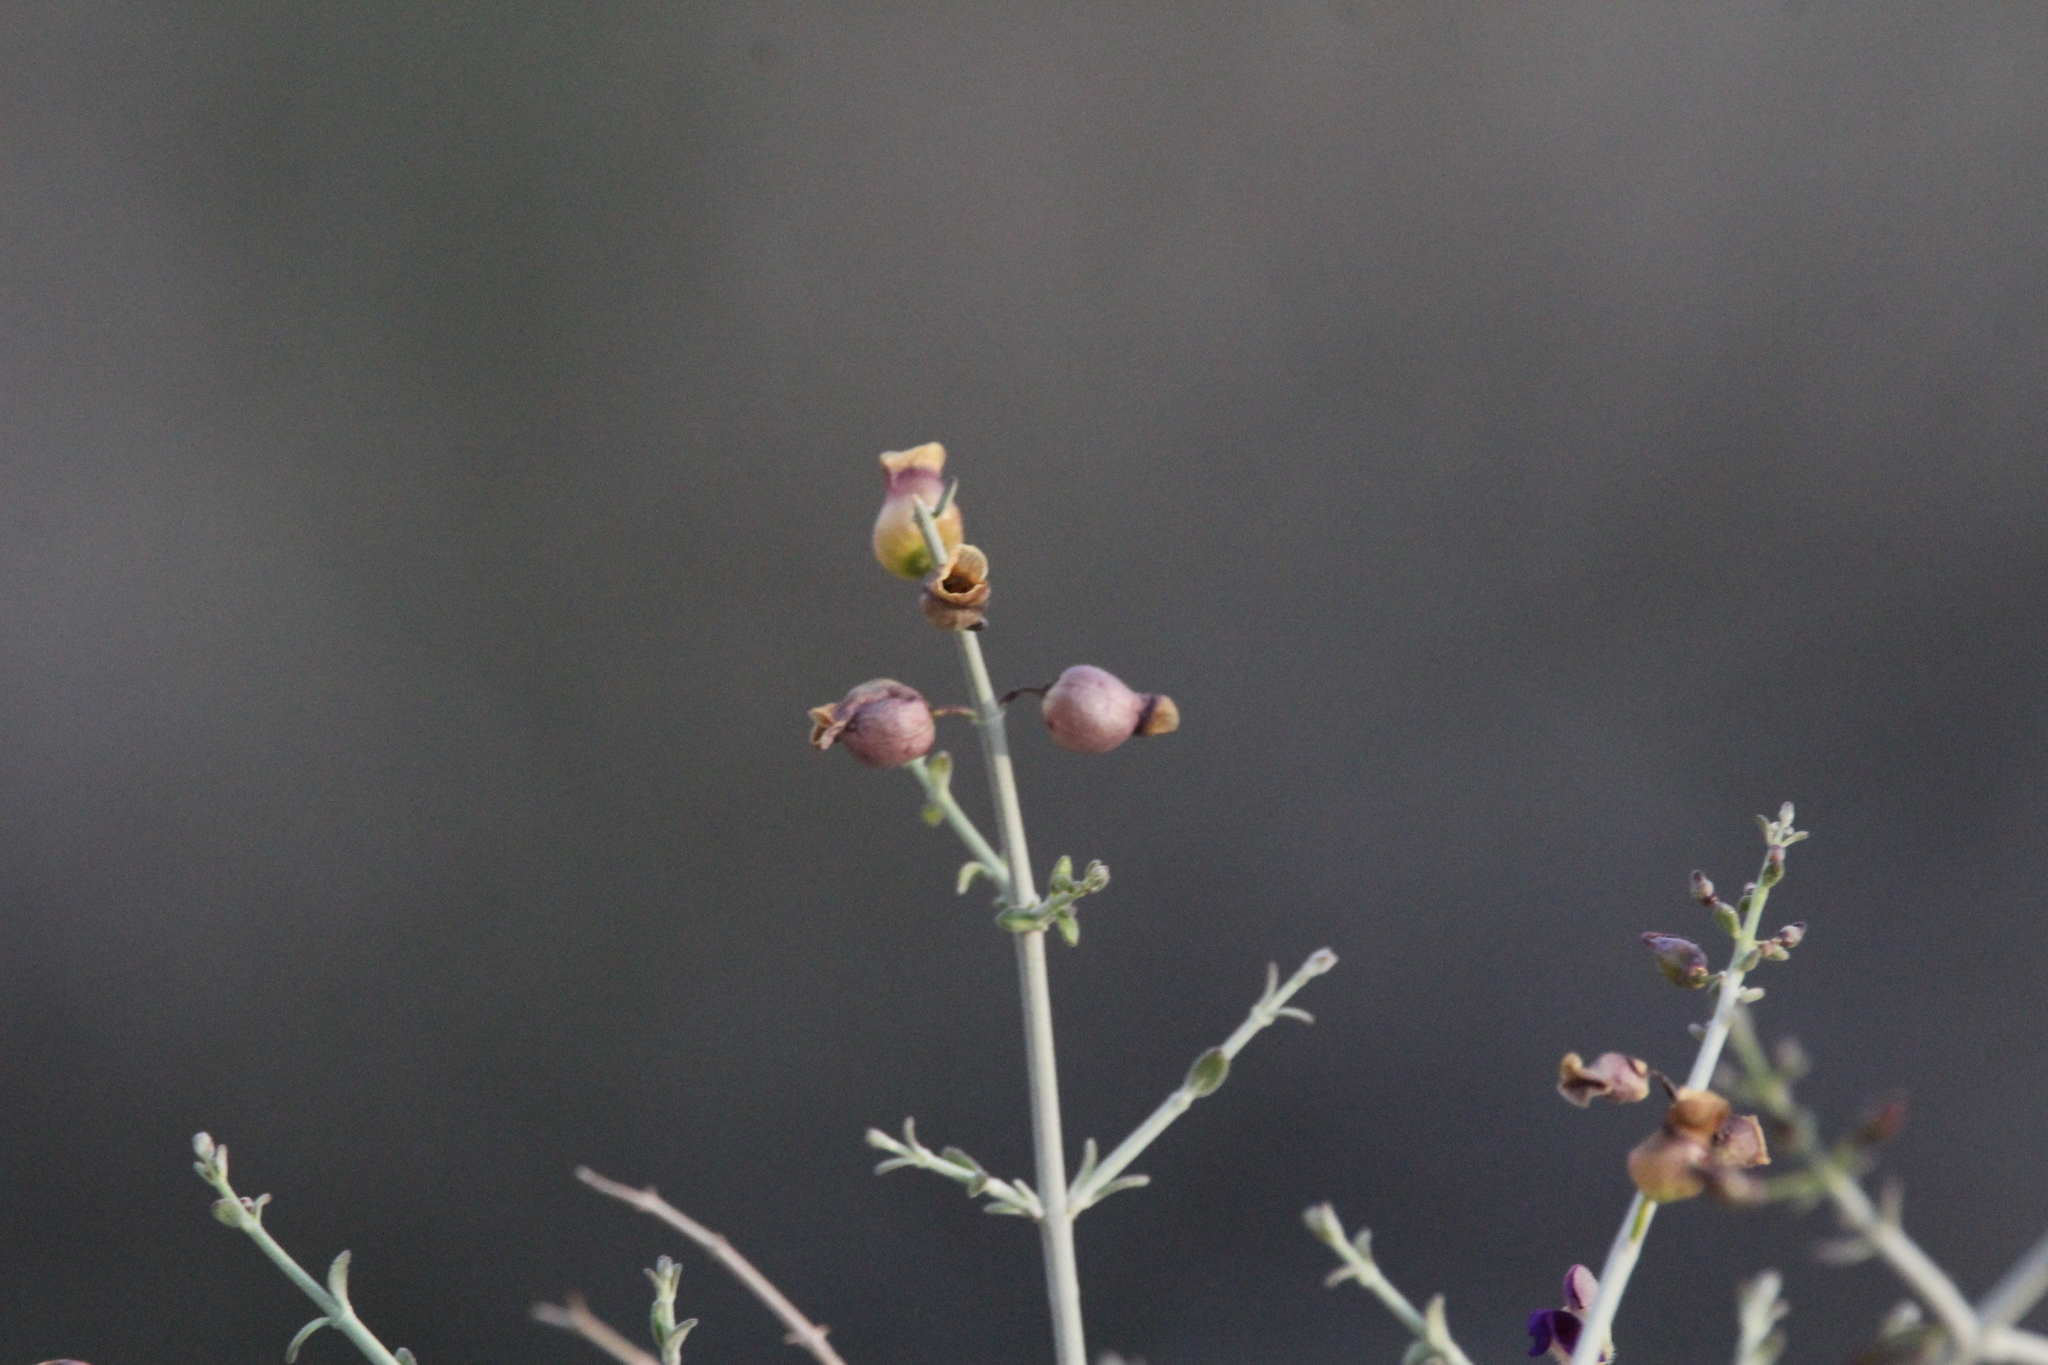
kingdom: Plantae
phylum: Tracheophyta
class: Magnoliopsida
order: Lamiales
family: Lamiaceae
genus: Scutellaria
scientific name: Scutellaria mexicana
